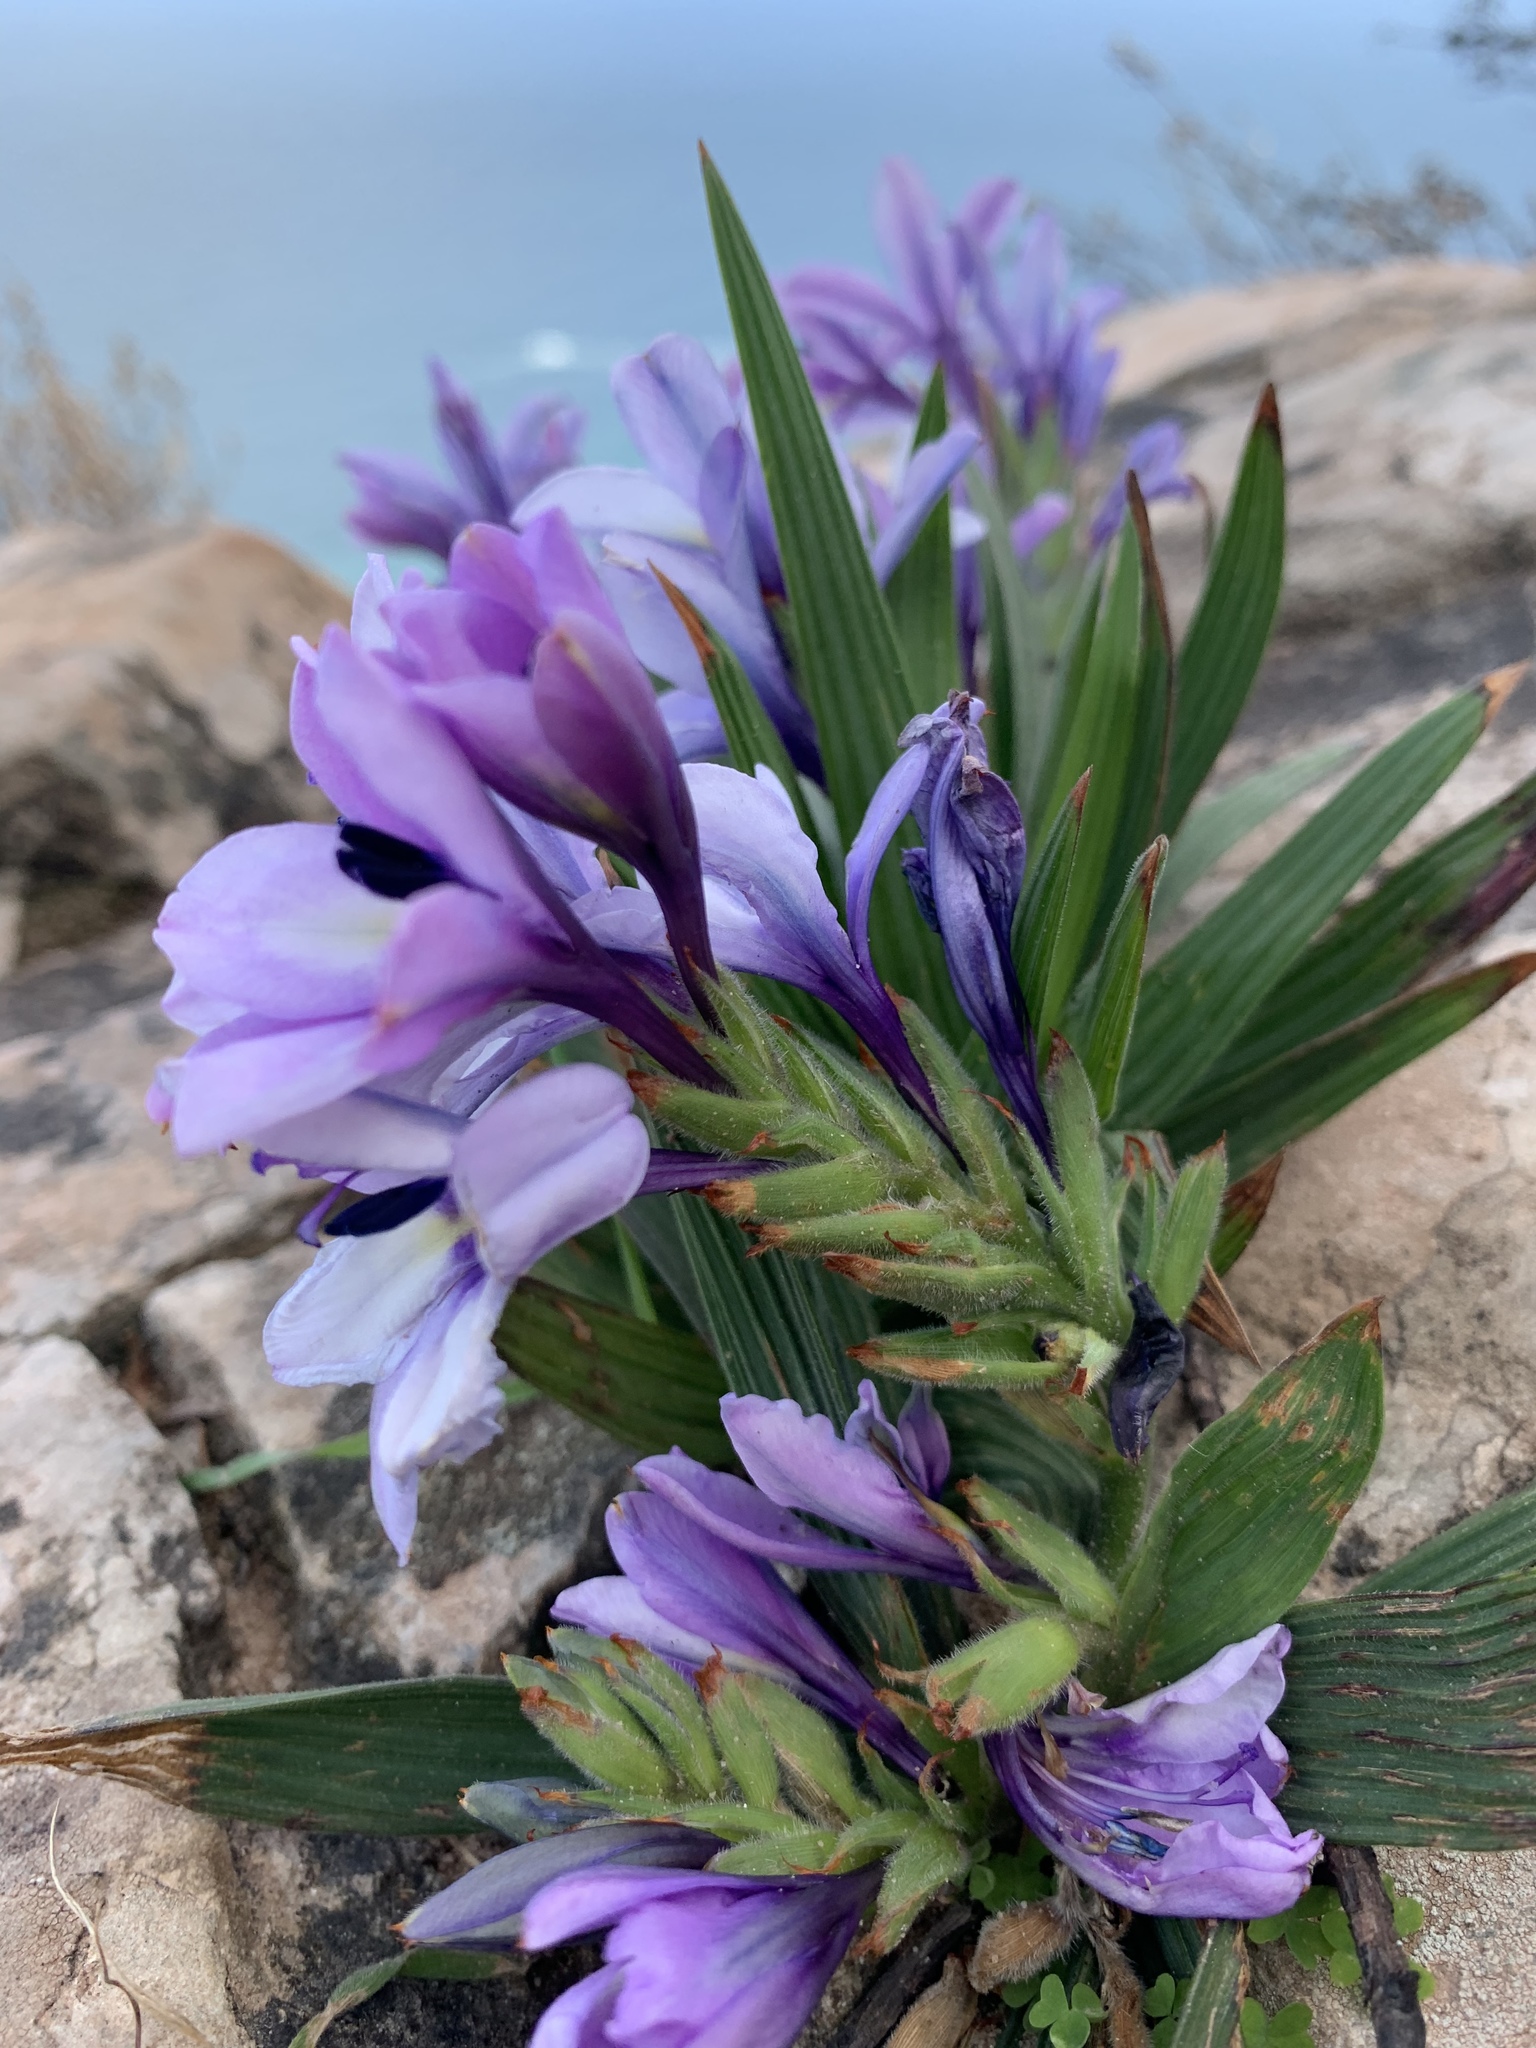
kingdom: Plantae
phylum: Tracheophyta
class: Liliopsida
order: Asparagales
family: Iridaceae
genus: Babiana
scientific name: Babiana fragrans
